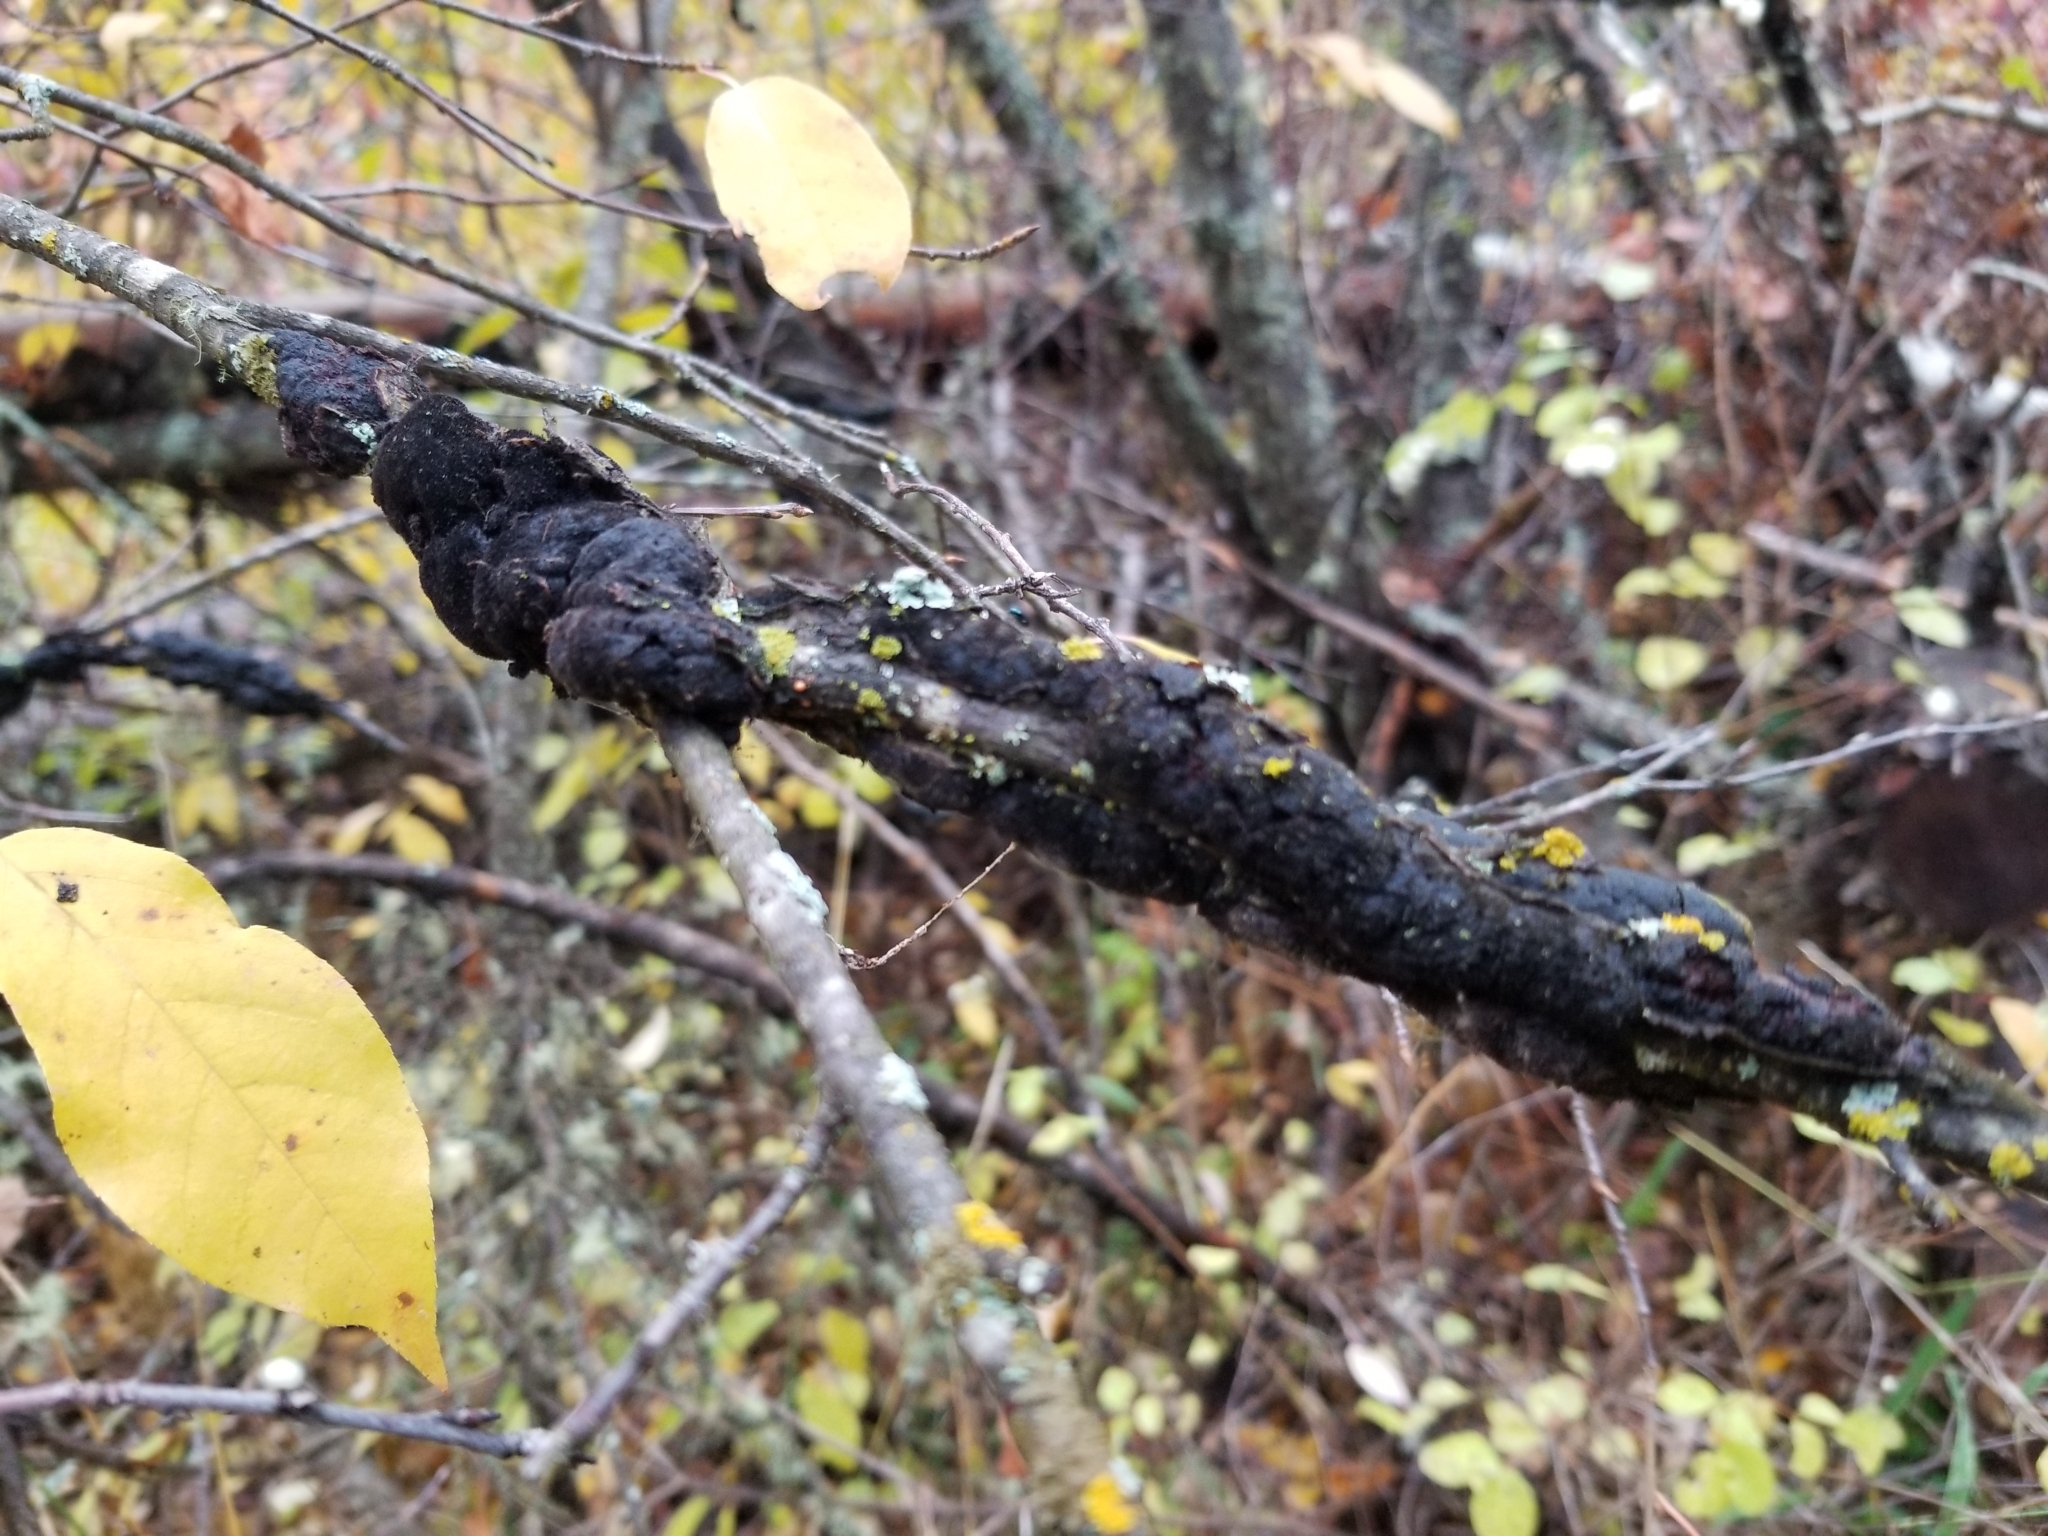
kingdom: Fungi
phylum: Ascomycota
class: Dothideomycetes
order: Venturiales
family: Venturiaceae
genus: Apiosporina
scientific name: Apiosporina morbosa
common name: Black knot
